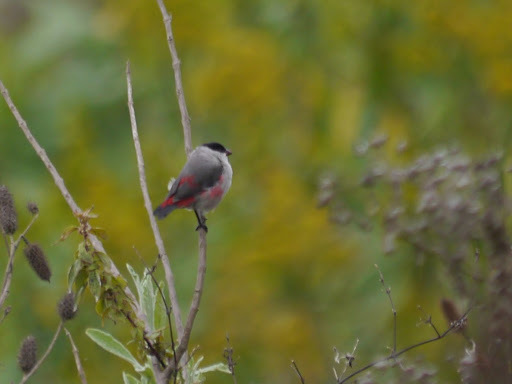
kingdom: Animalia
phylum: Chordata
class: Aves
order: Passeriformes
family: Estrildidae
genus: Estrilda
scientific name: Estrilda nonnula
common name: Black-crowned waxbill
